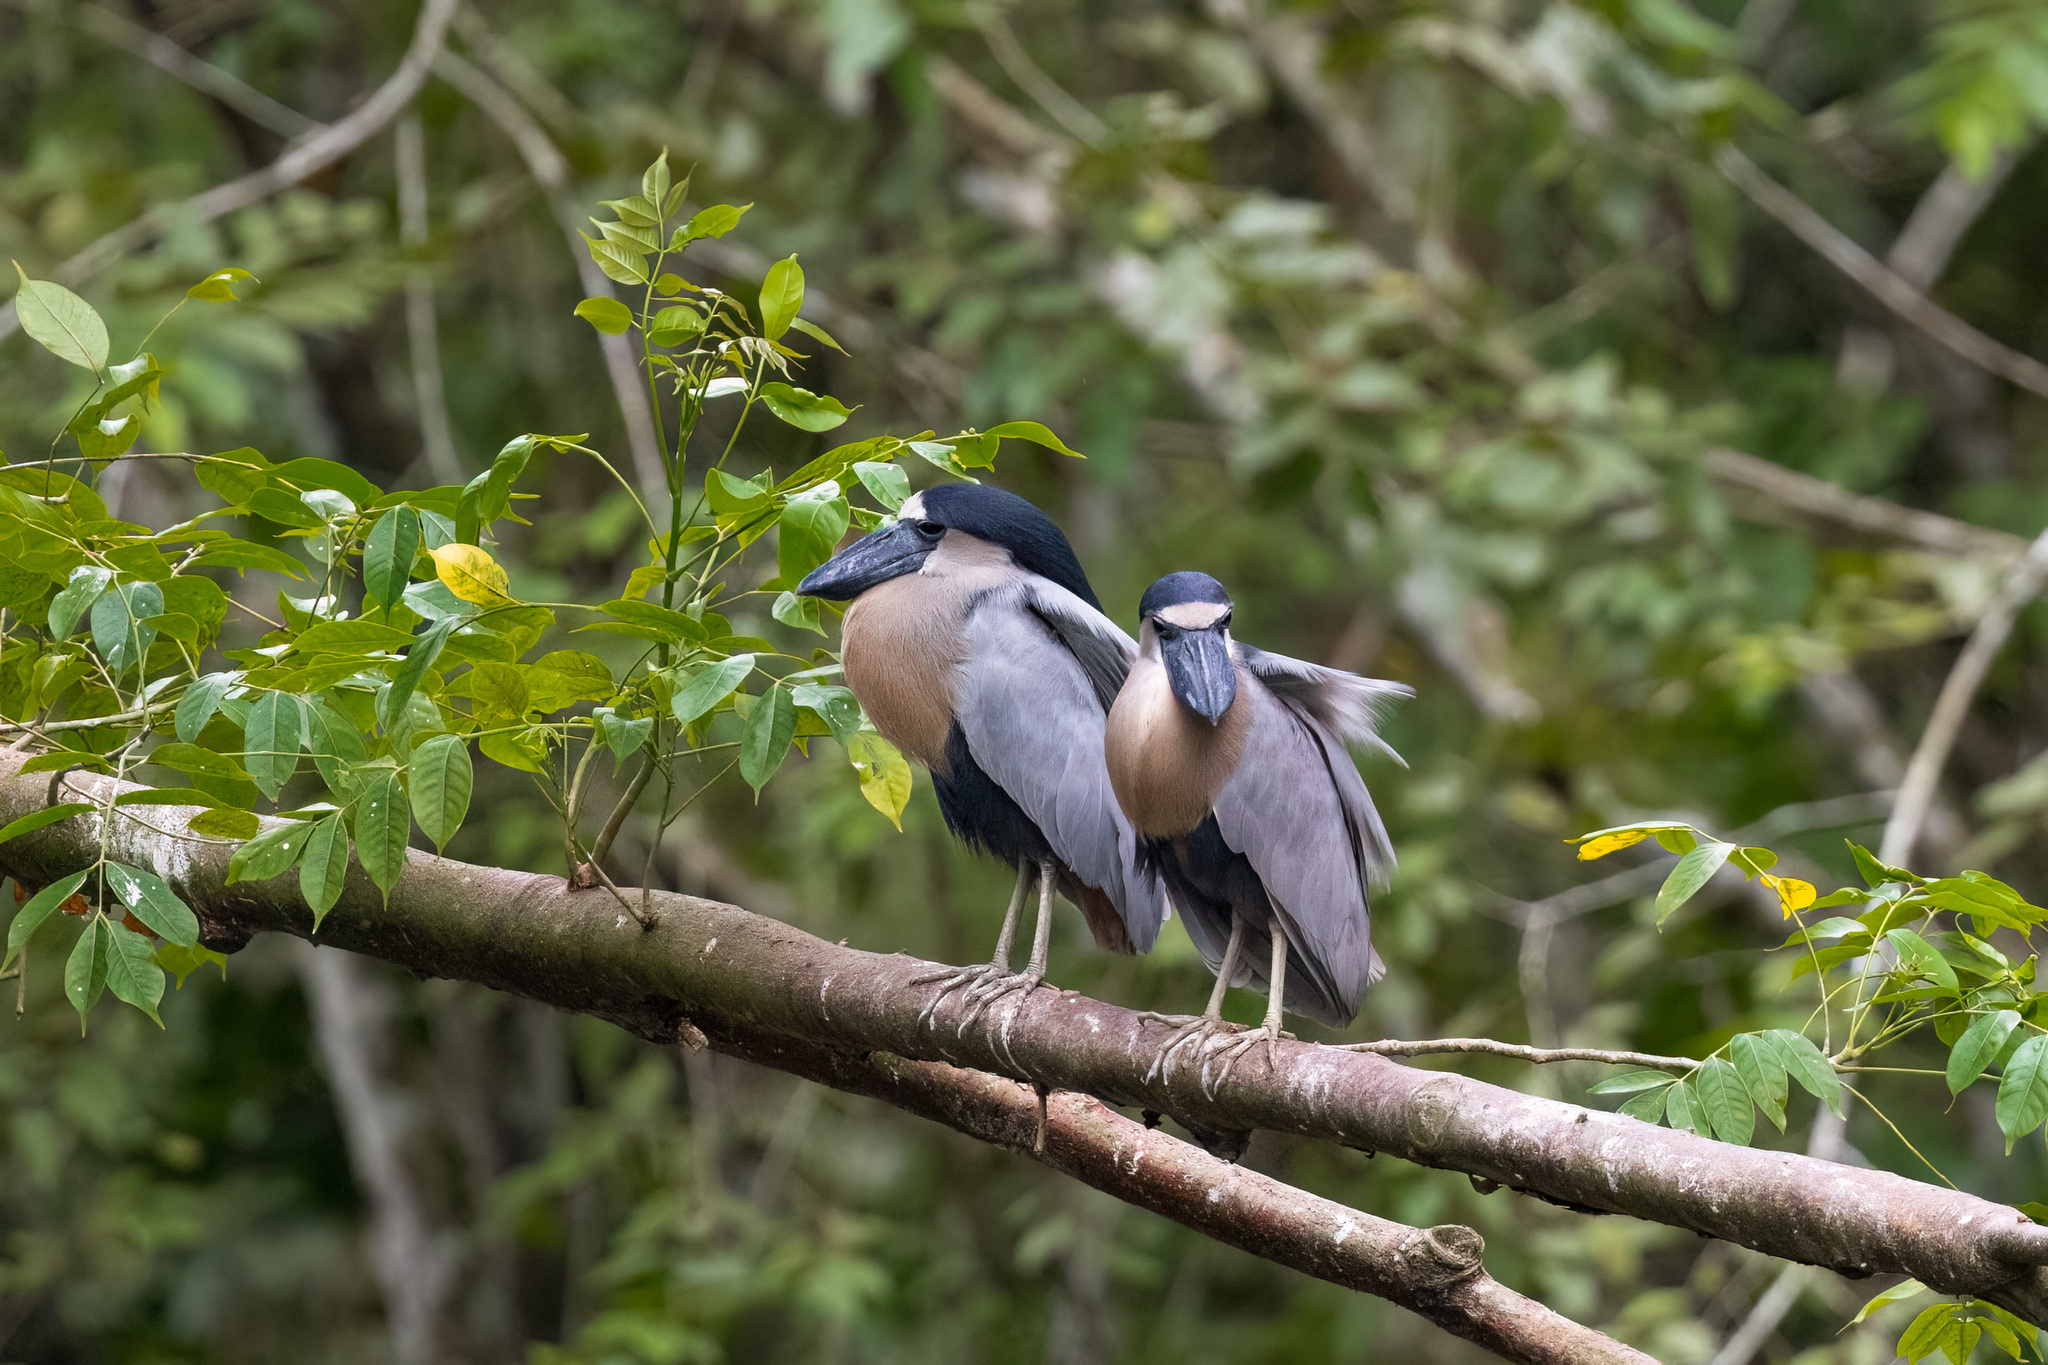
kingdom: Animalia
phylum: Chordata
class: Aves
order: Pelecaniformes
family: Ardeidae
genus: Cochlearius
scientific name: Cochlearius cochlearius
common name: Boat-billed heron
